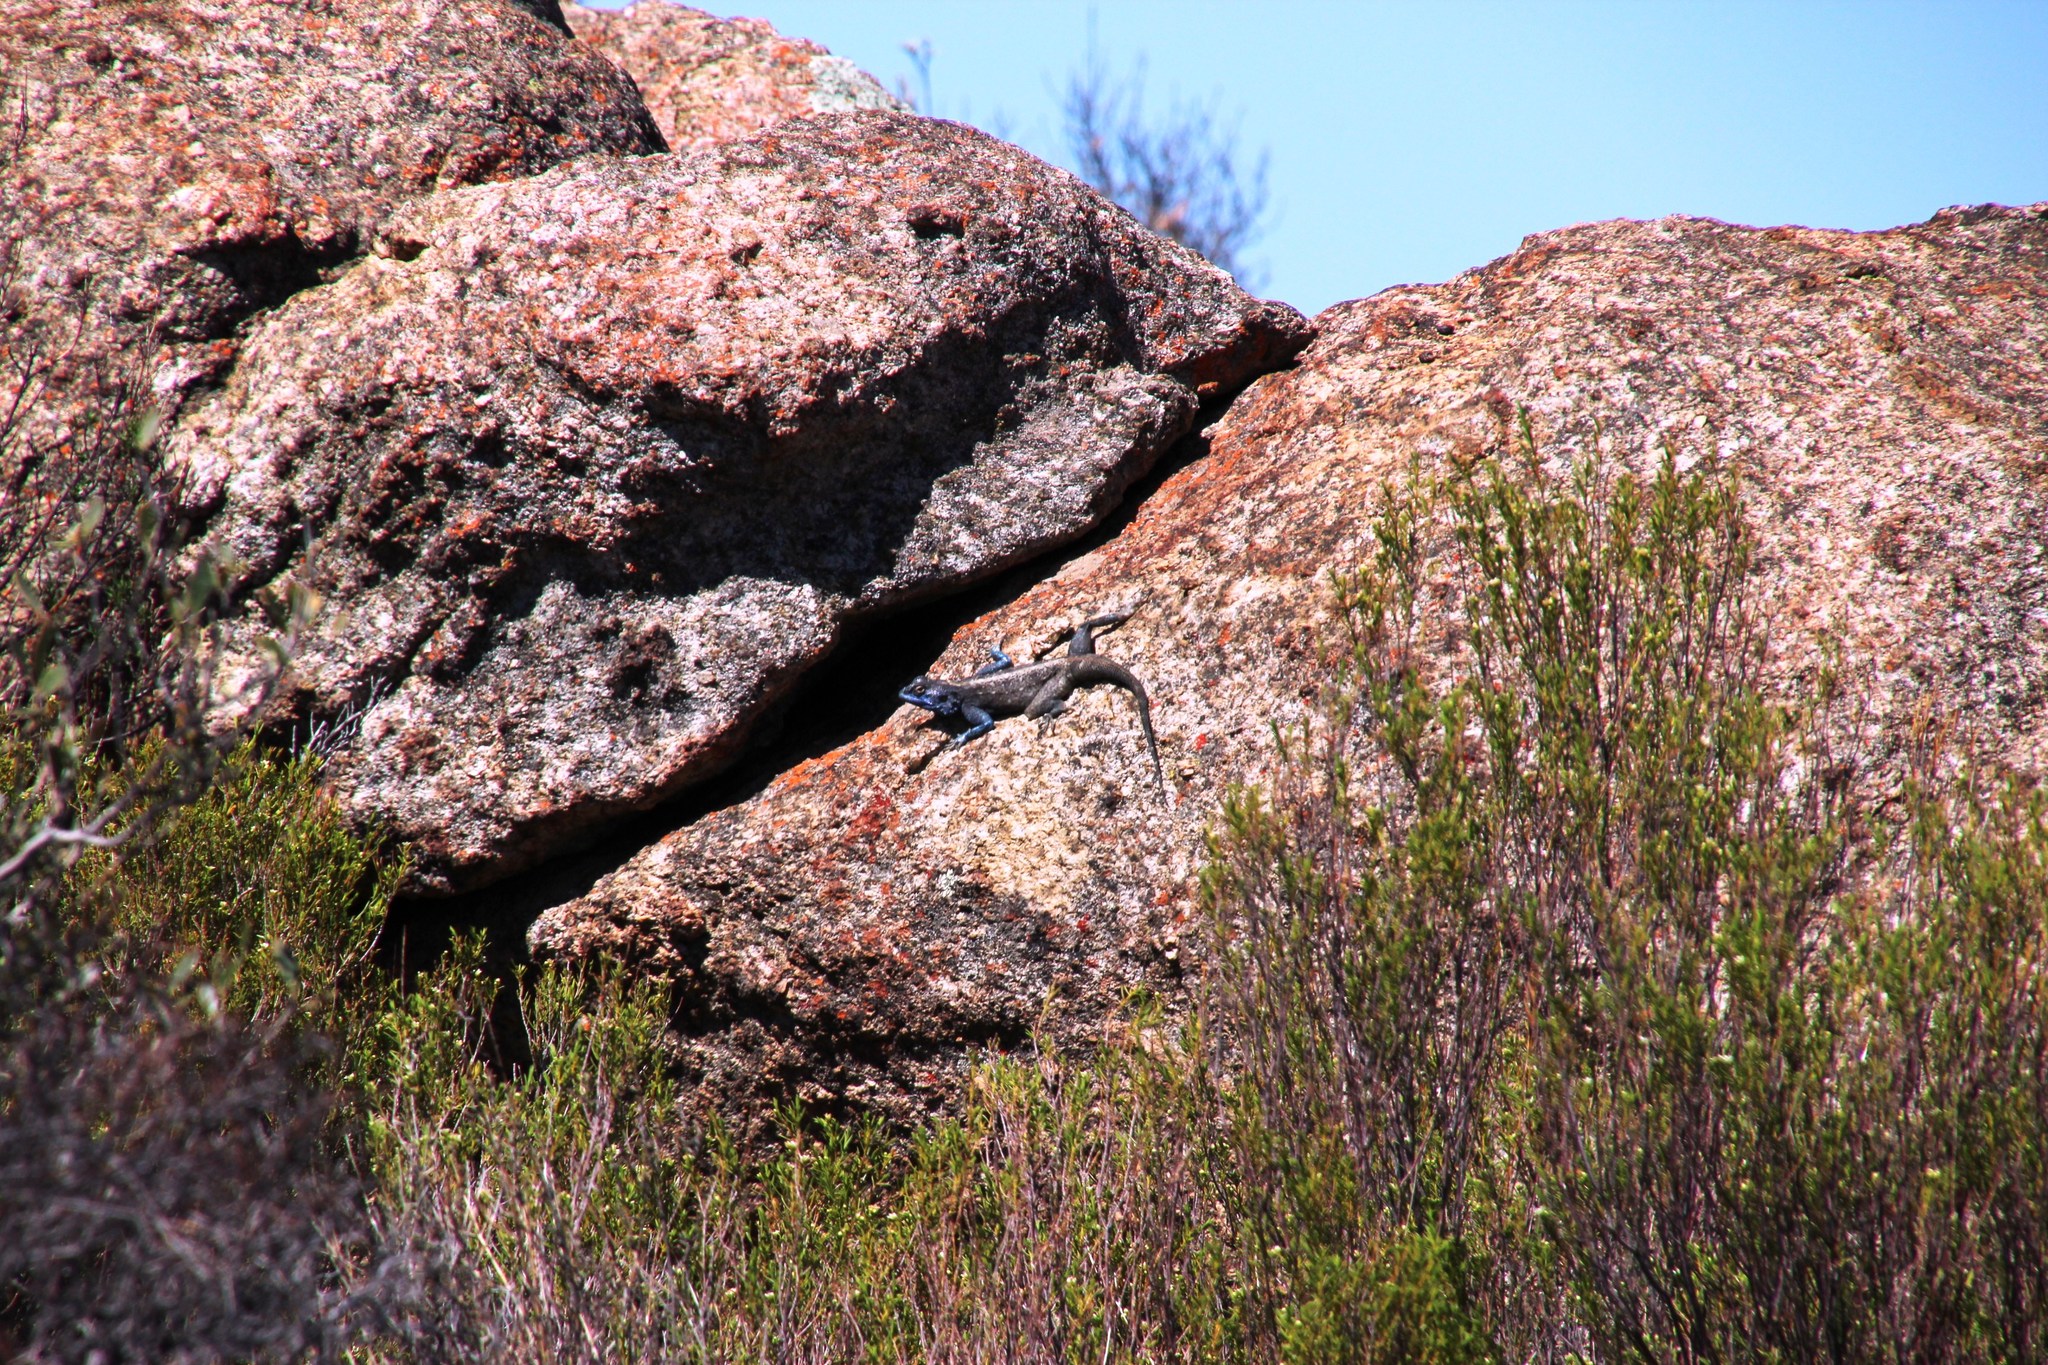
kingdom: Animalia
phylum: Chordata
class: Squamata
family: Agamidae
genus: Agama
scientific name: Agama atra
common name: Southern african rock agama
